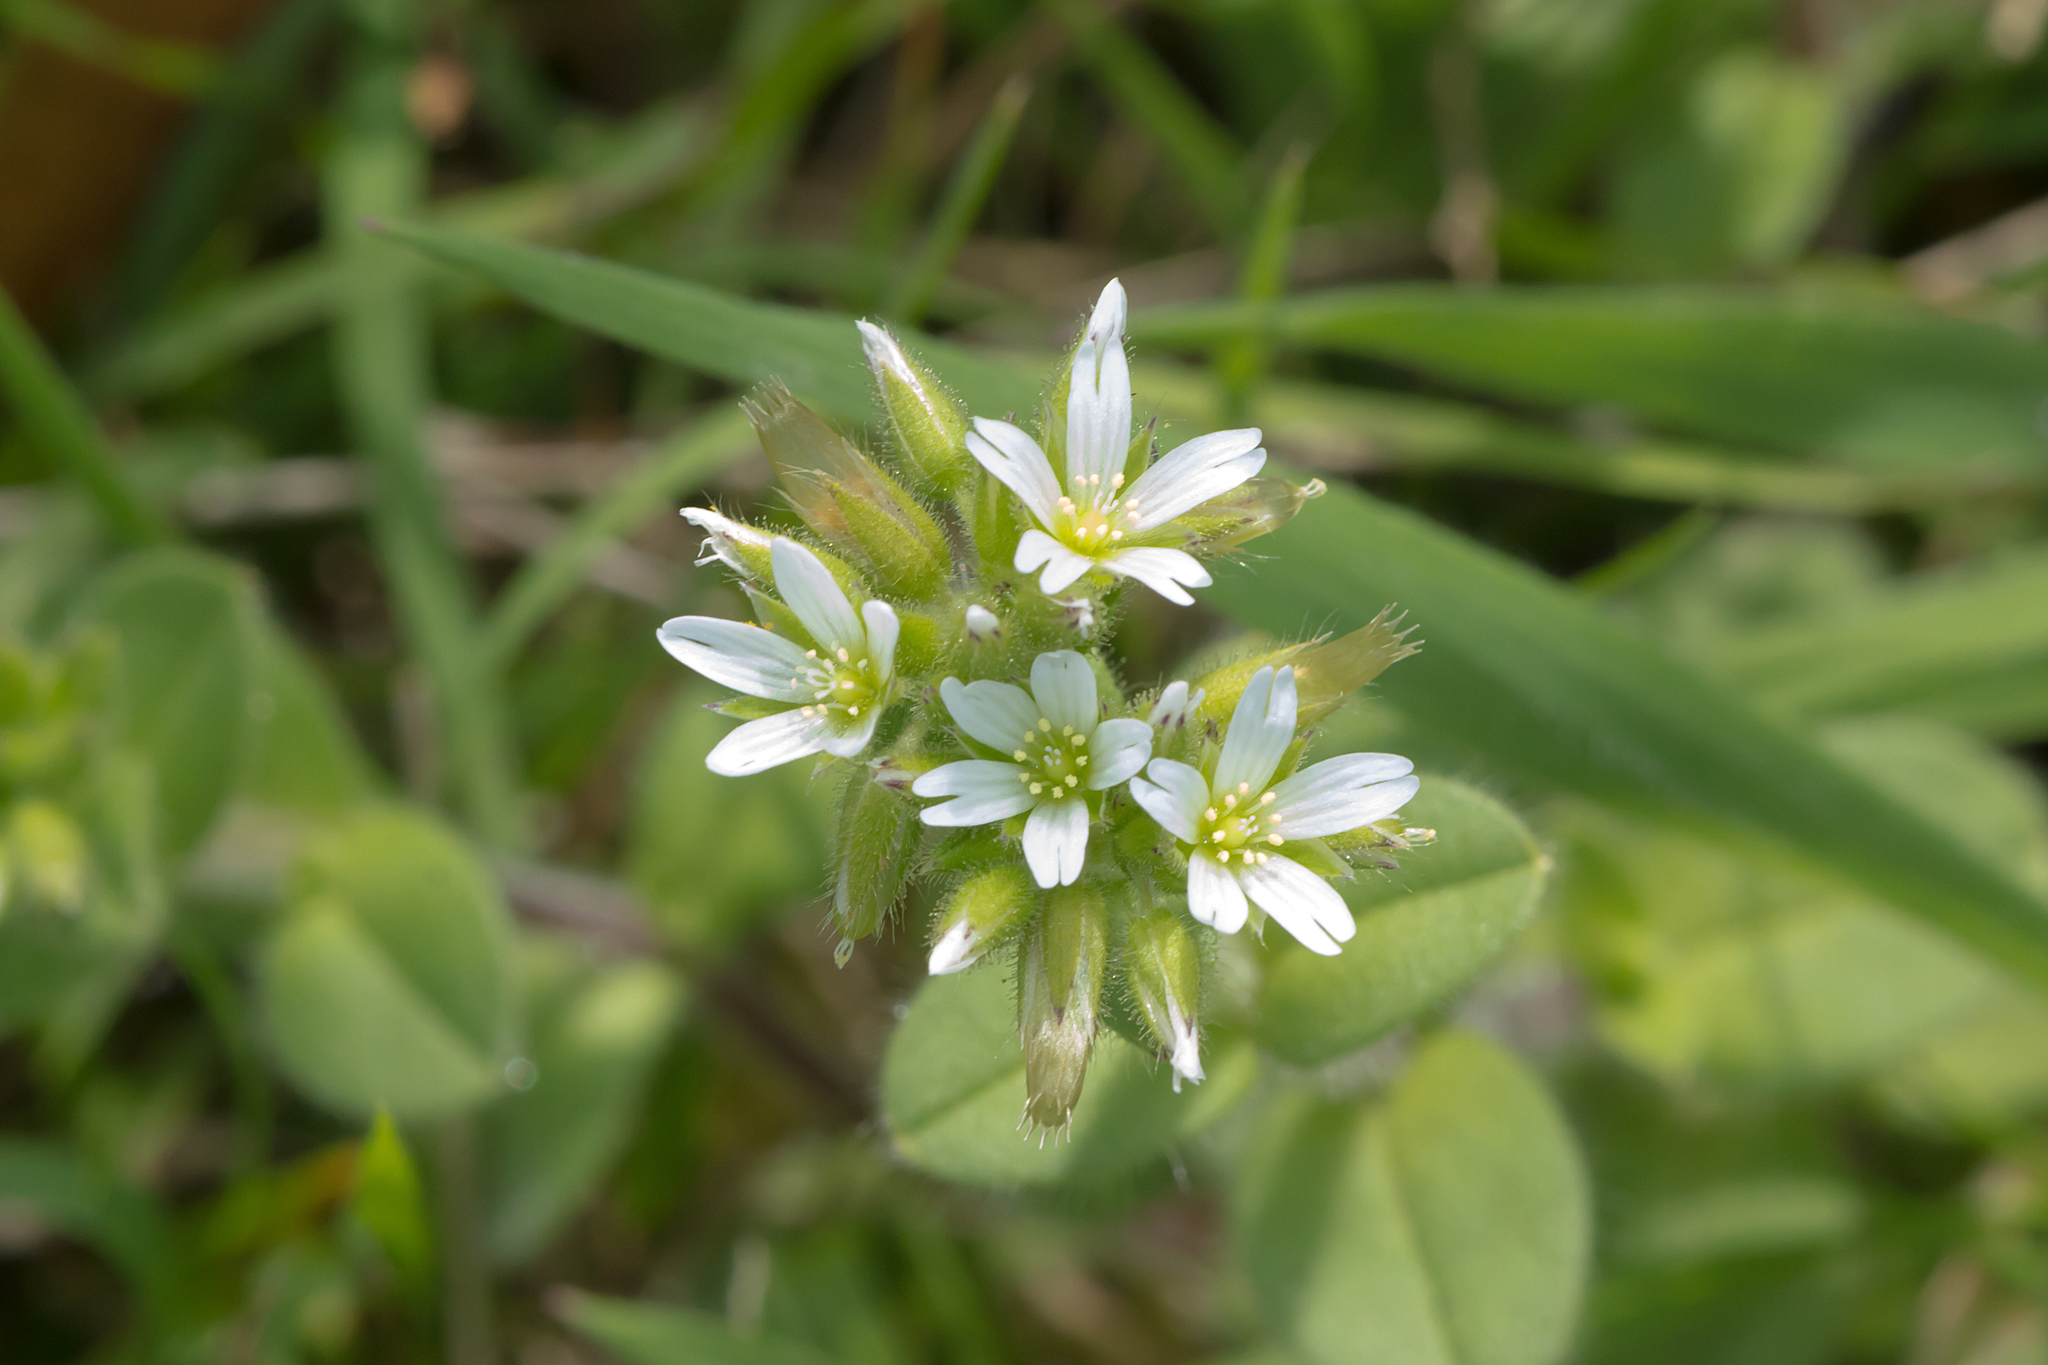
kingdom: Plantae
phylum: Tracheophyta
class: Magnoliopsida
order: Caryophyllales
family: Caryophyllaceae
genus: Cerastium
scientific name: Cerastium glomeratum
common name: Sticky chickweed
